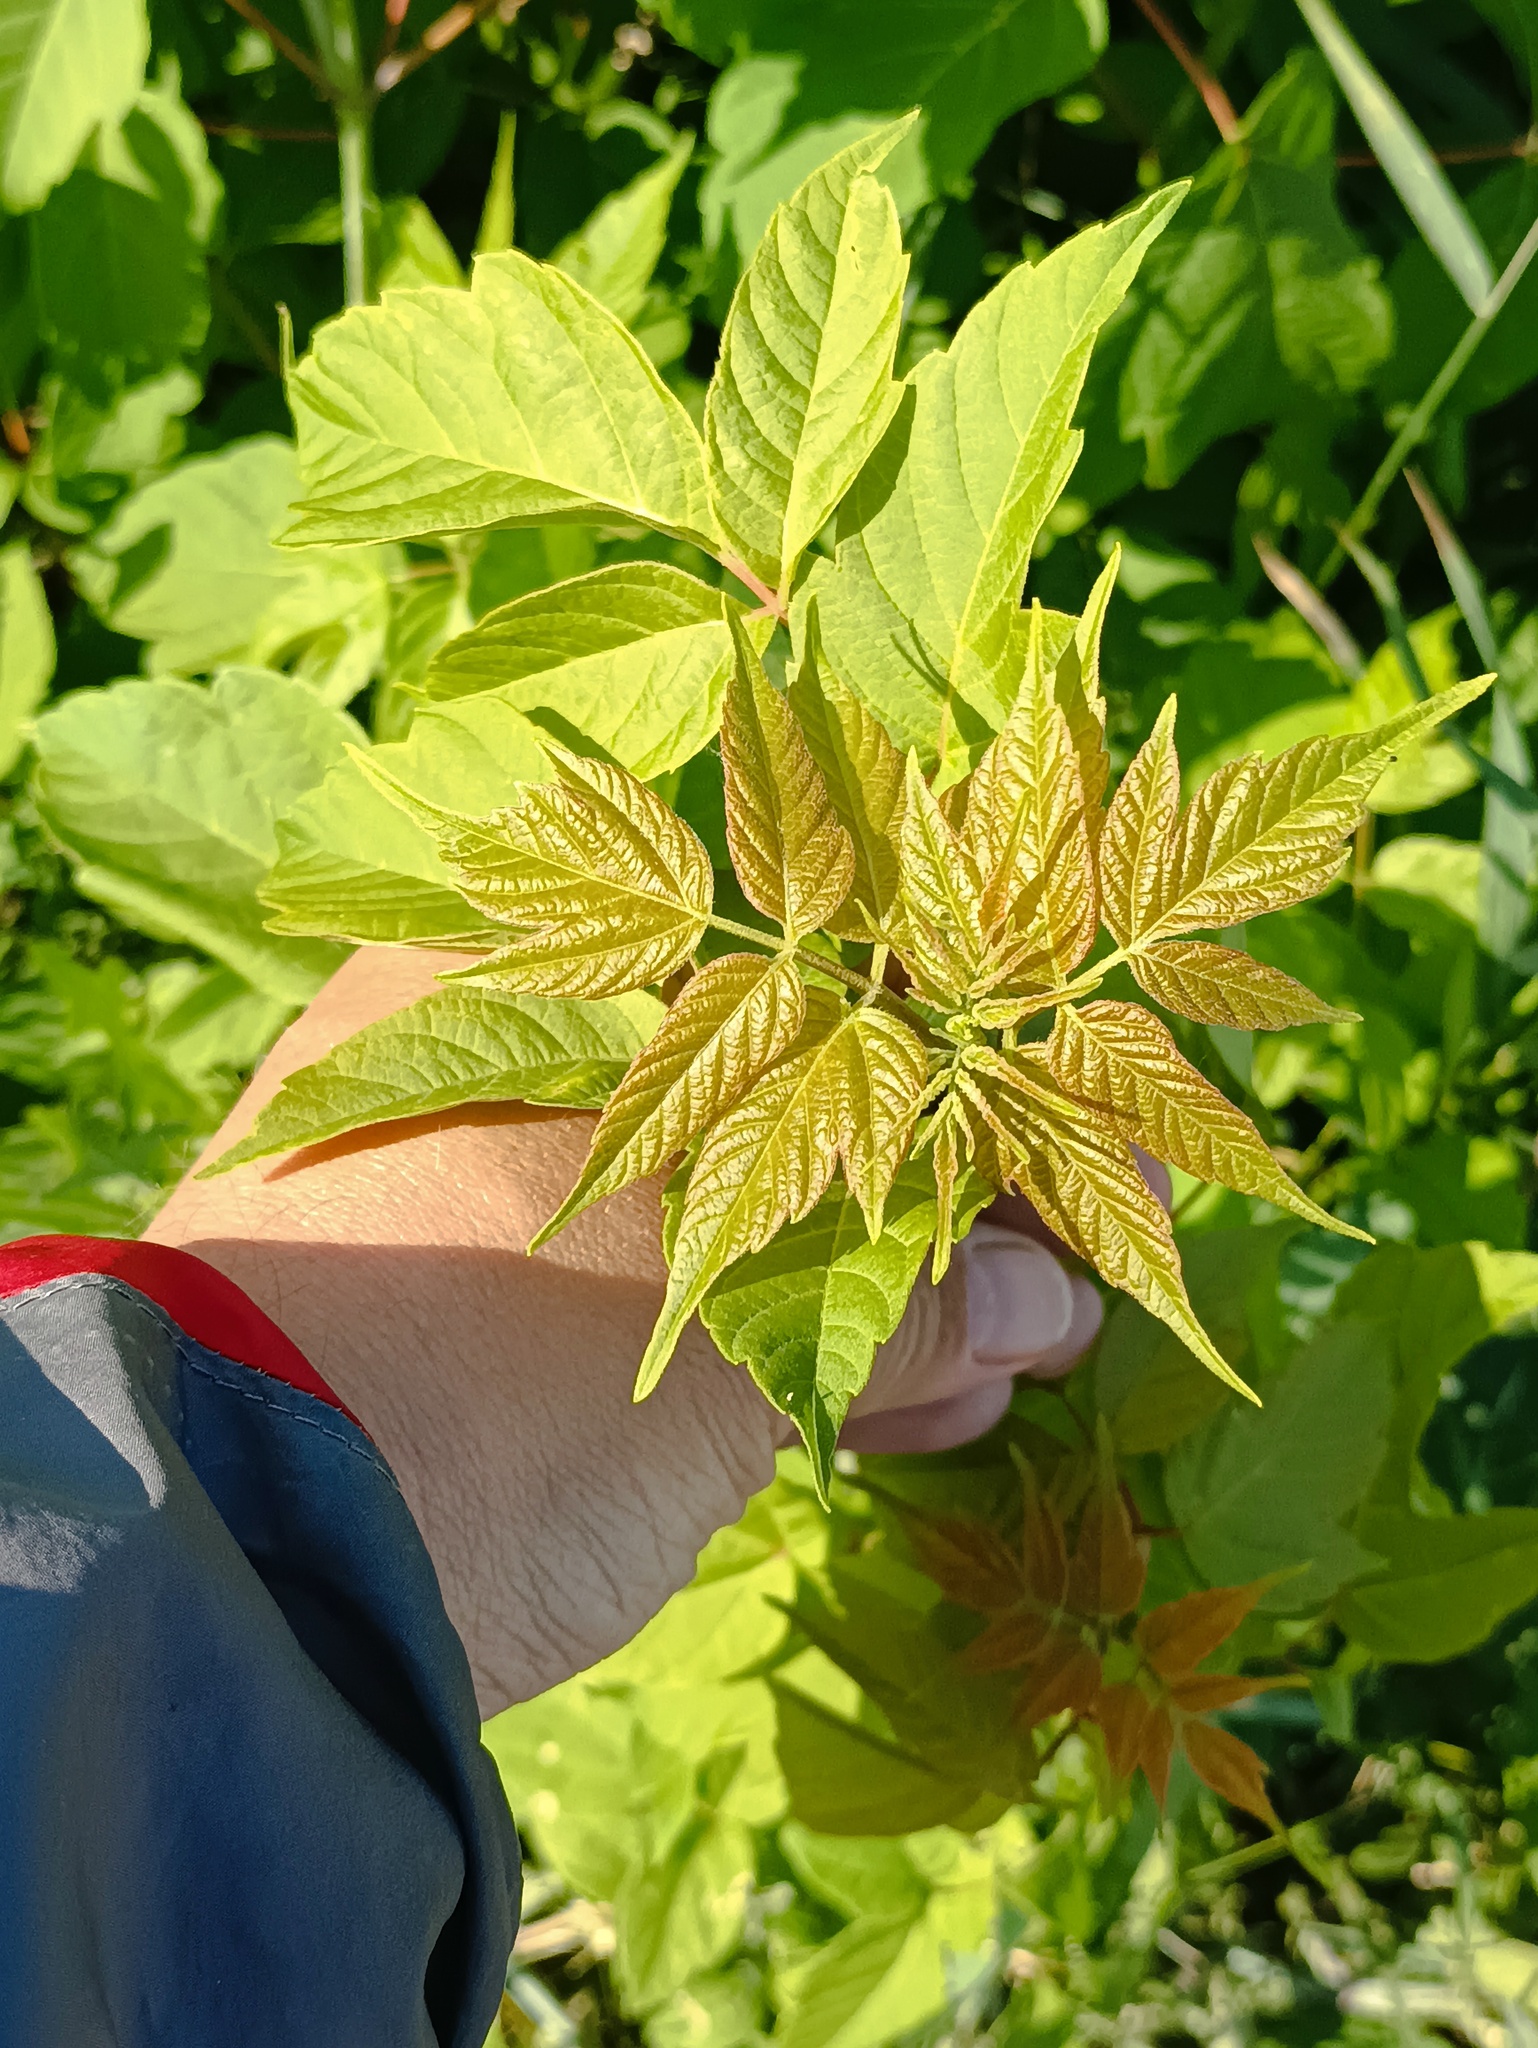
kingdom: Plantae
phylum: Tracheophyta
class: Magnoliopsida
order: Sapindales
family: Sapindaceae
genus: Acer
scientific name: Acer negundo
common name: Ashleaf maple
